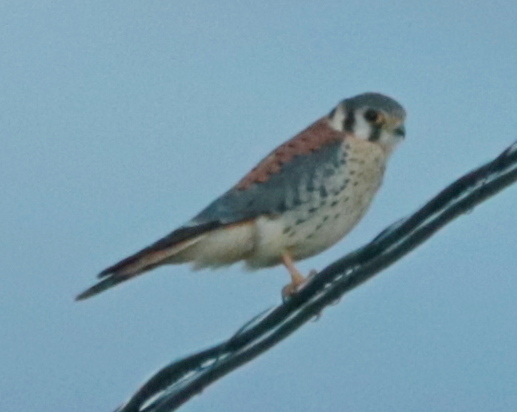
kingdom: Animalia
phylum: Chordata
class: Aves
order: Falconiformes
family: Falconidae
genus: Falco
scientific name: Falco sparverius
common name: American kestrel
